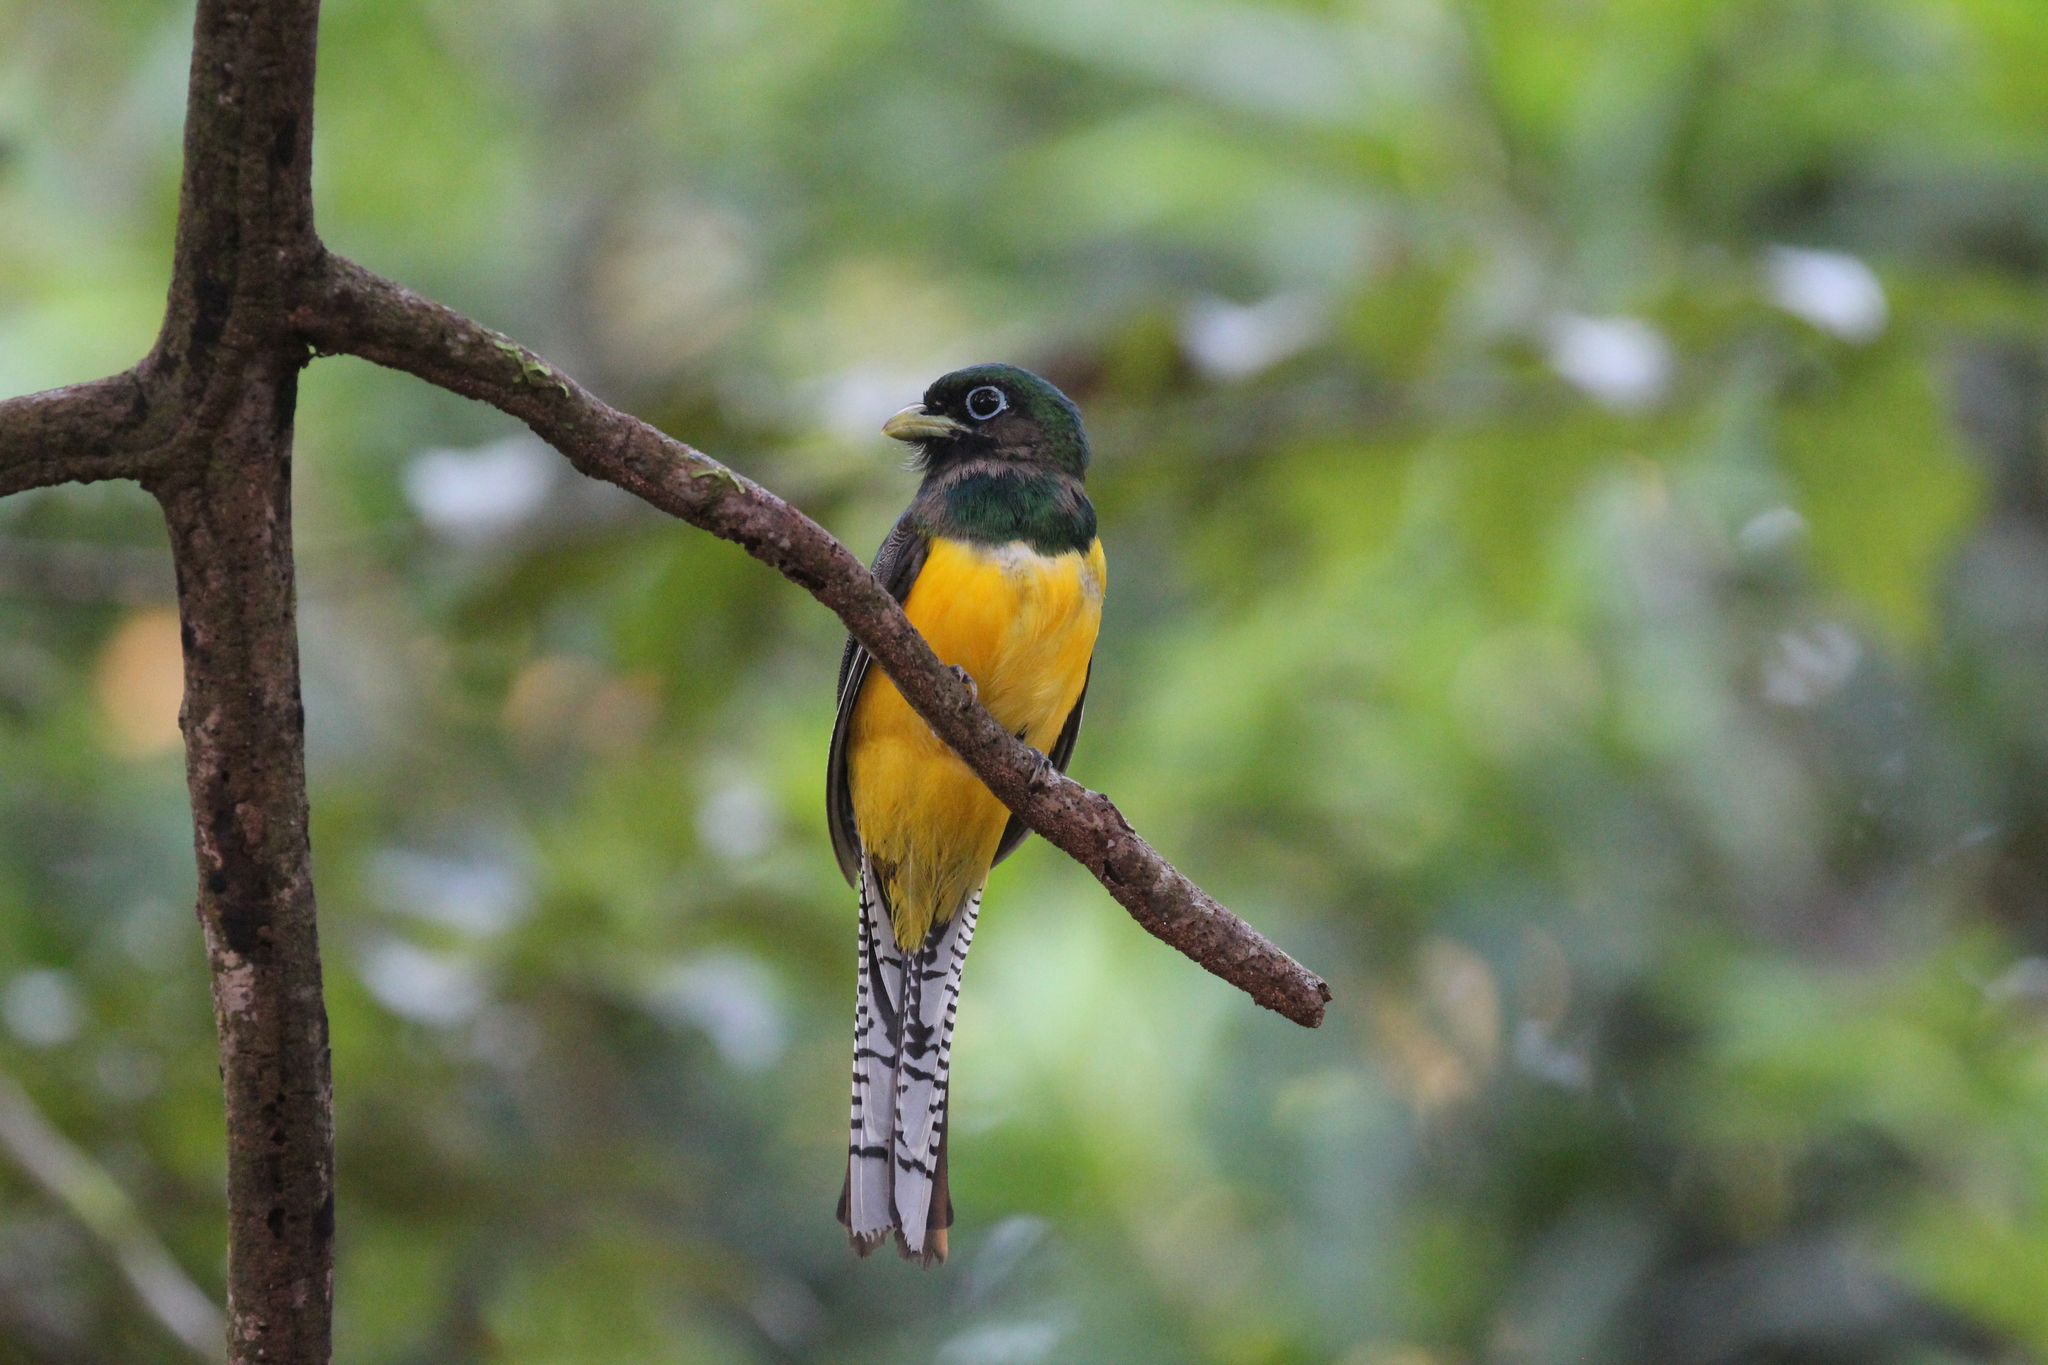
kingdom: Animalia
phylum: Chordata
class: Aves
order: Trogoniformes
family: Trogonidae
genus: Trogon
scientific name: Trogon rufus
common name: Black-throated trogon
